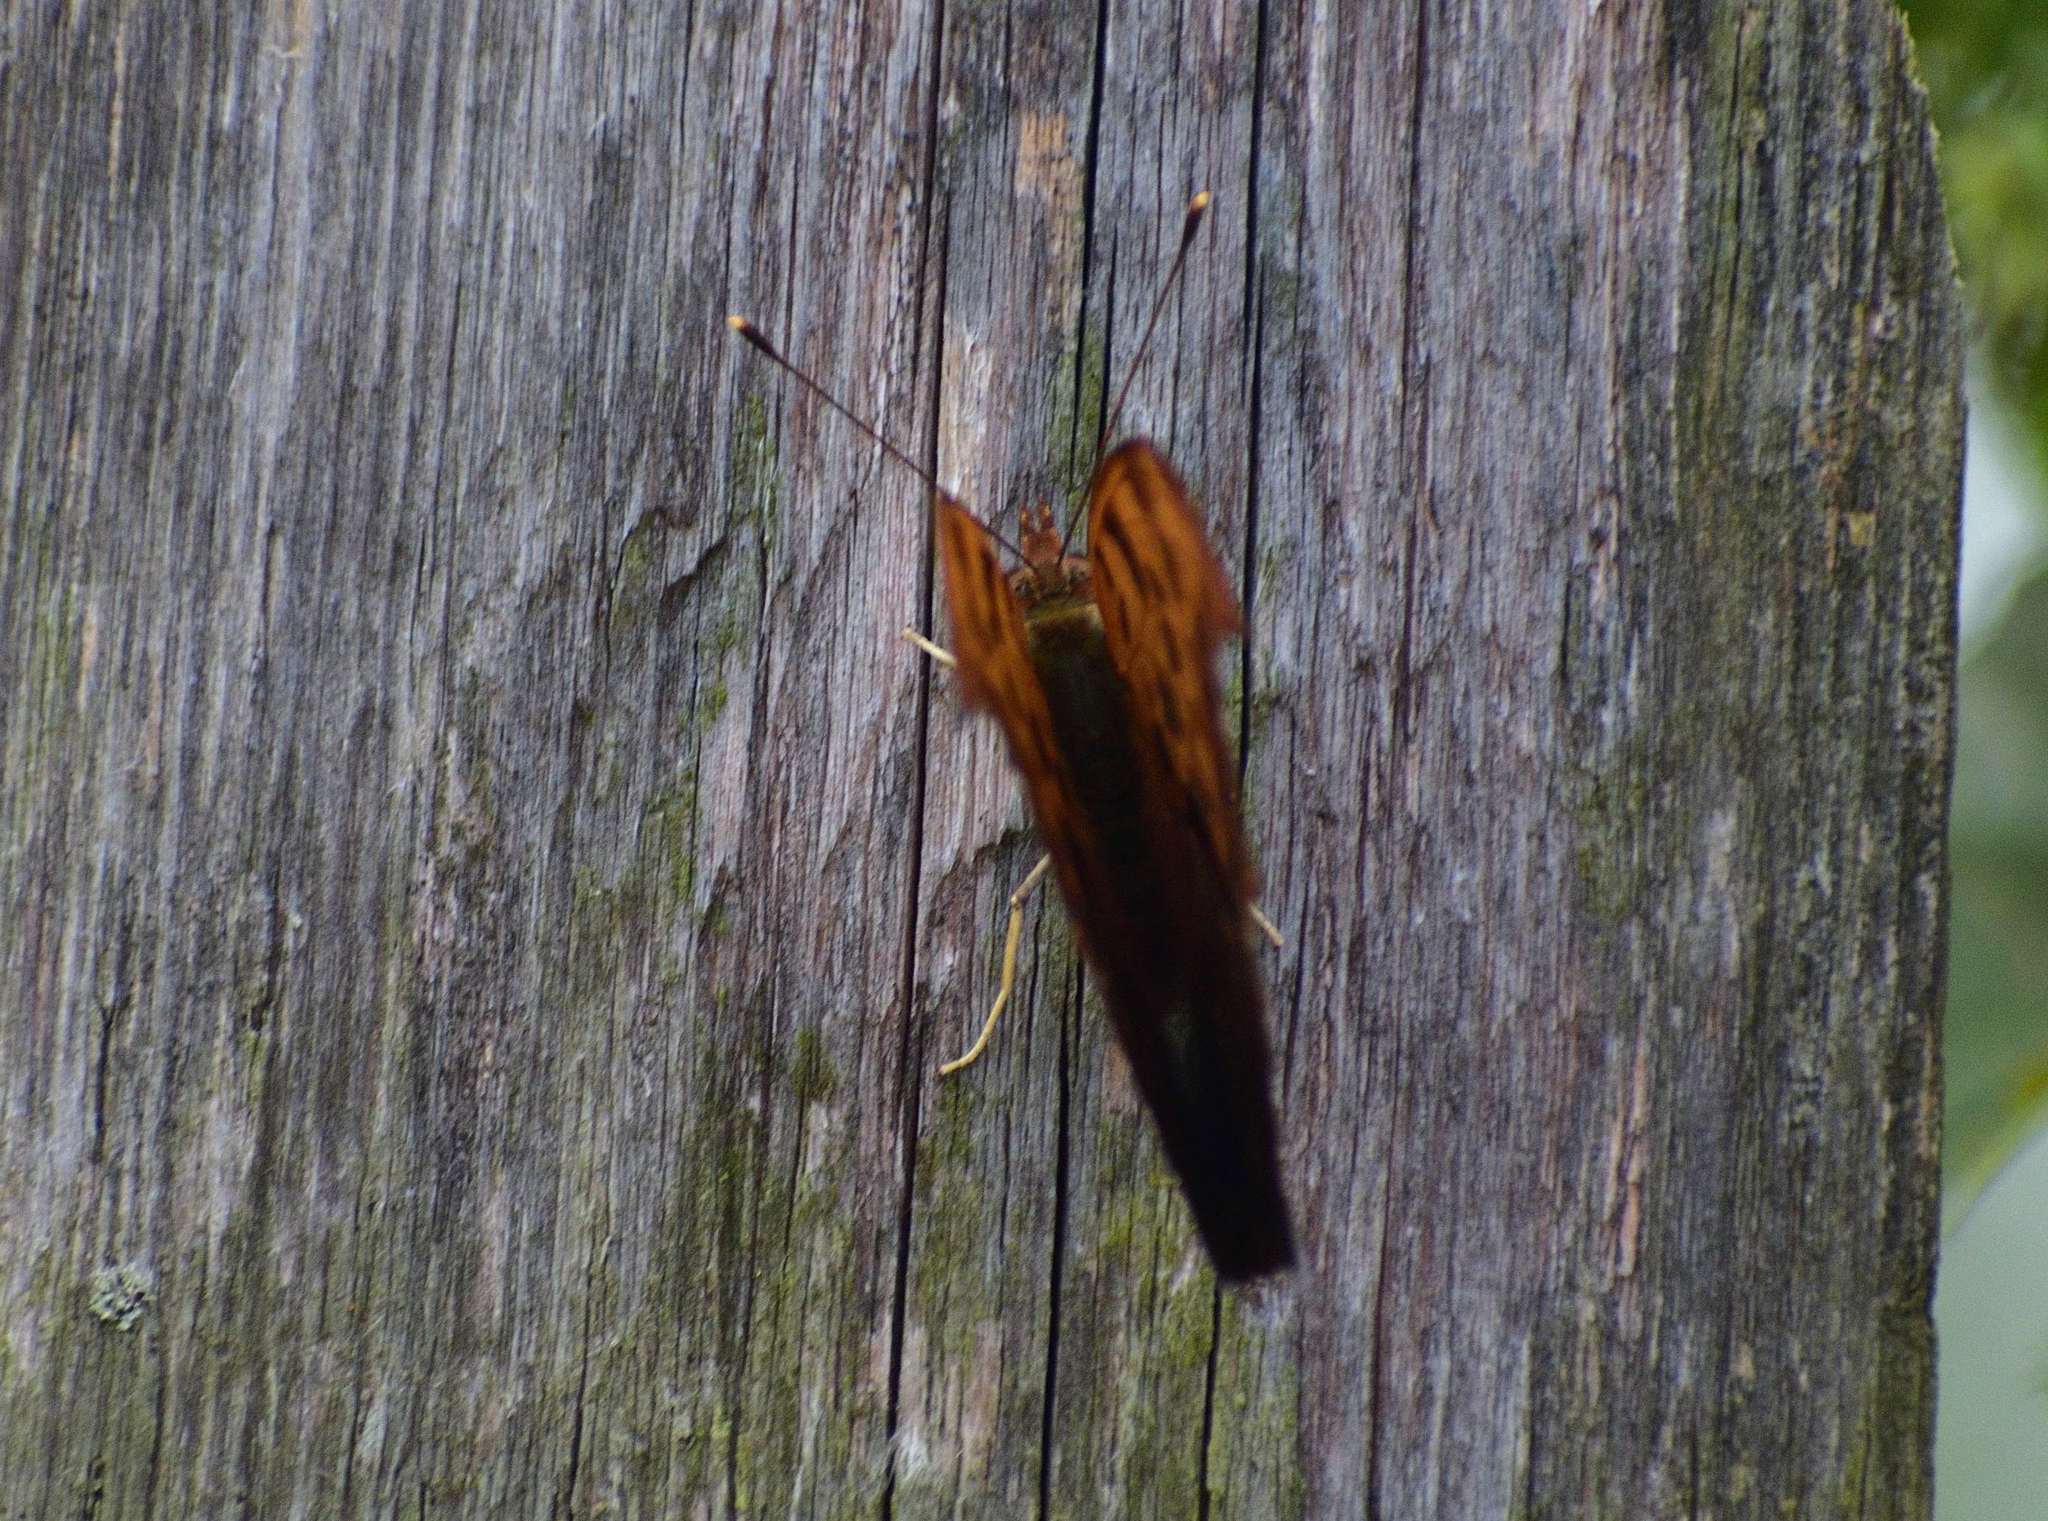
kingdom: Animalia
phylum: Arthropoda
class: Insecta
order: Lepidoptera
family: Nymphalidae
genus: Polygonia
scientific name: Polygonia interrogationis
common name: Question mark
